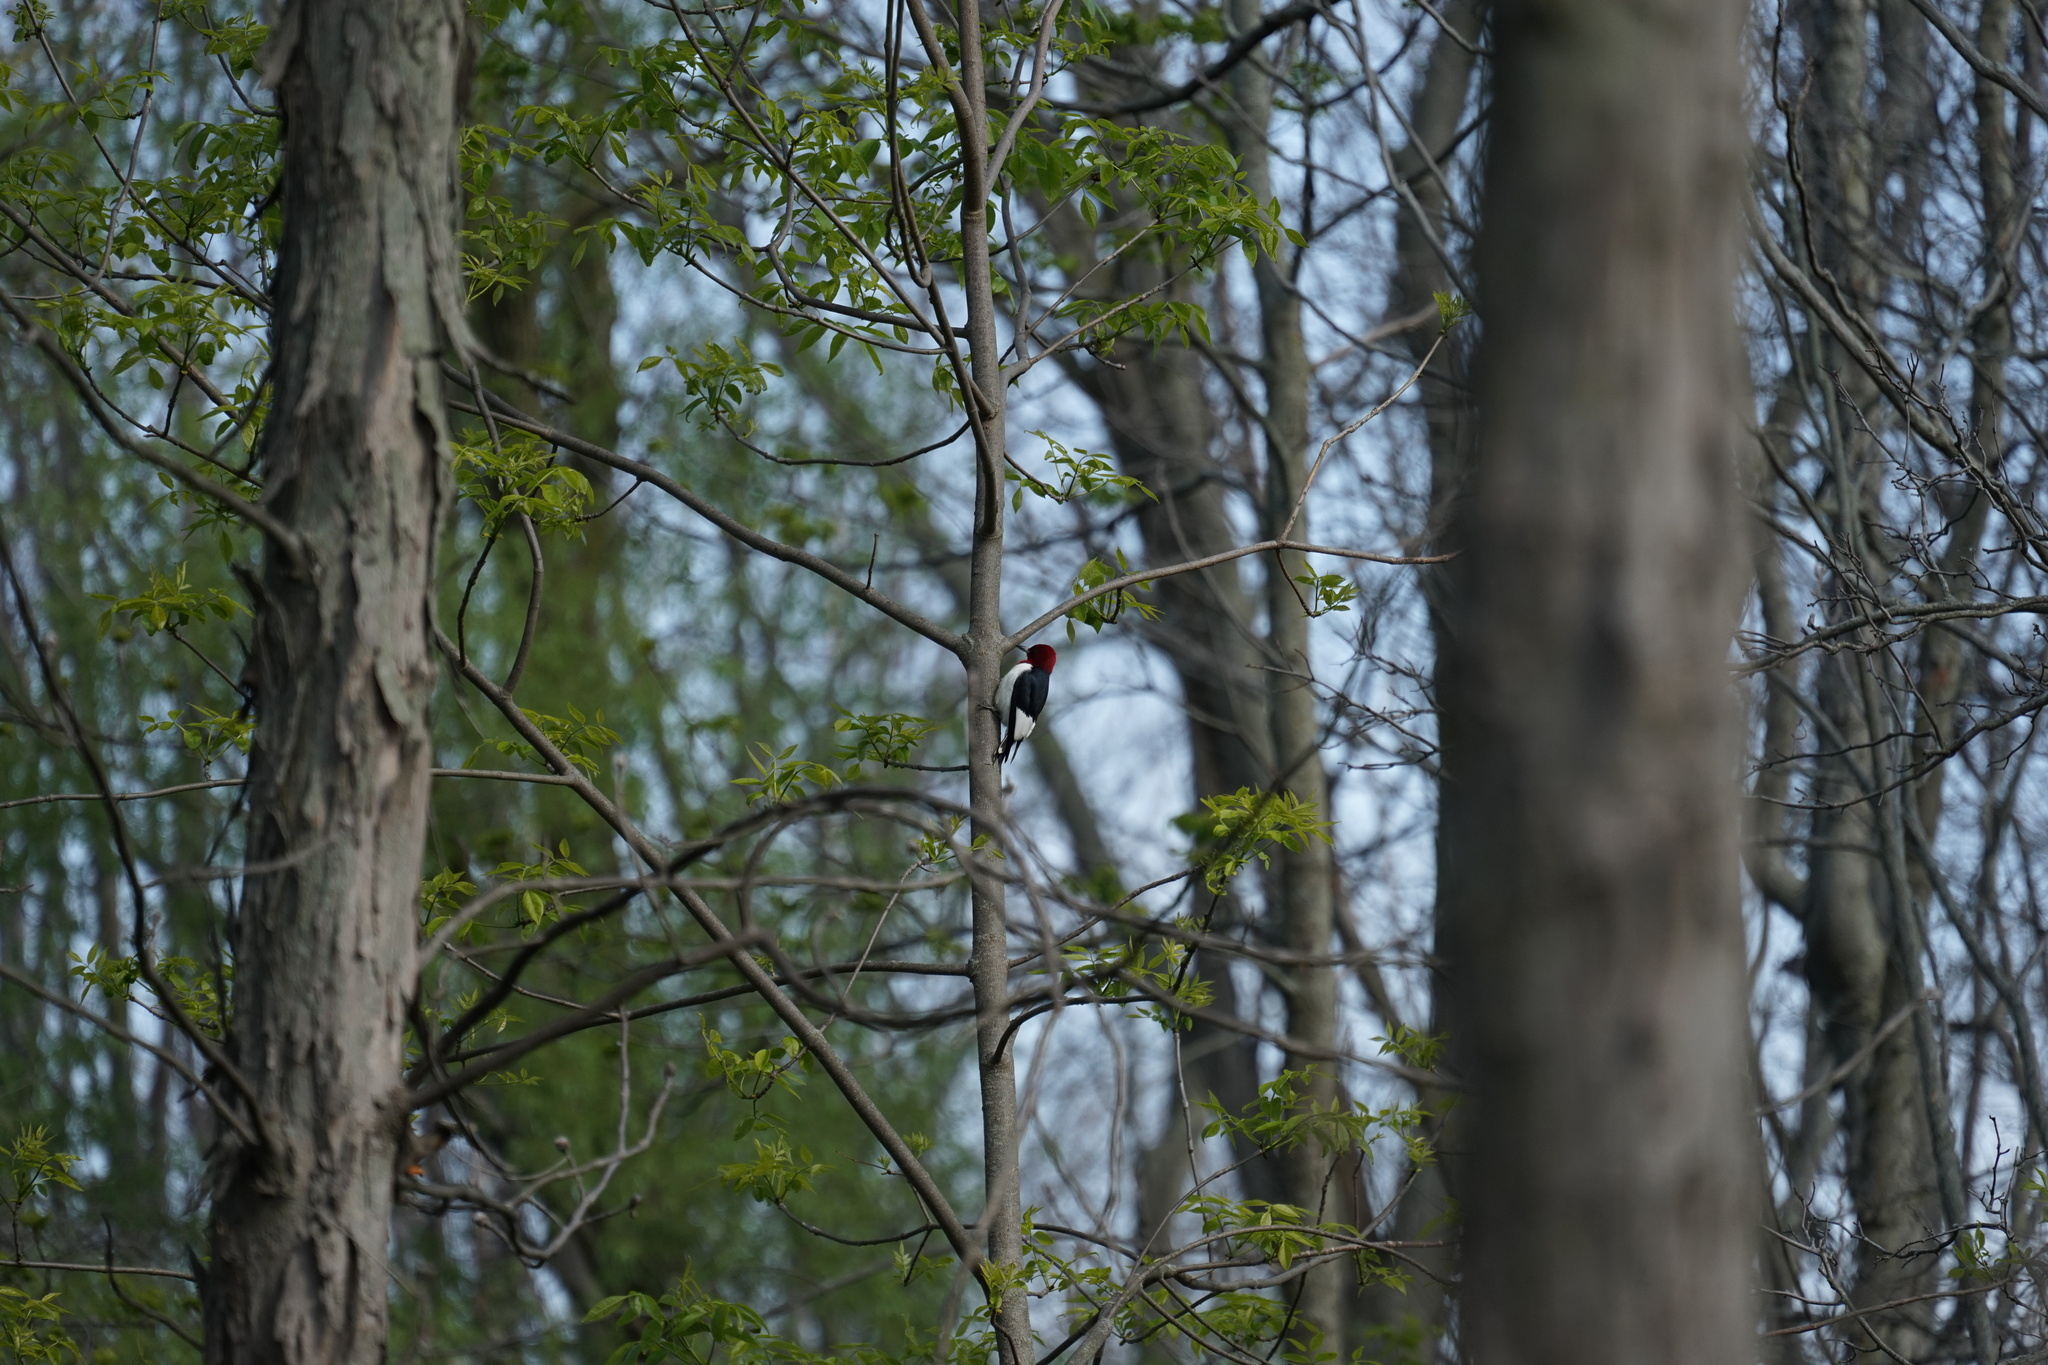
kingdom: Animalia
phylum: Chordata
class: Aves
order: Piciformes
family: Picidae
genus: Melanerpes
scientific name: Melanerpes erythrocephalus
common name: Red-headed woodpecker
